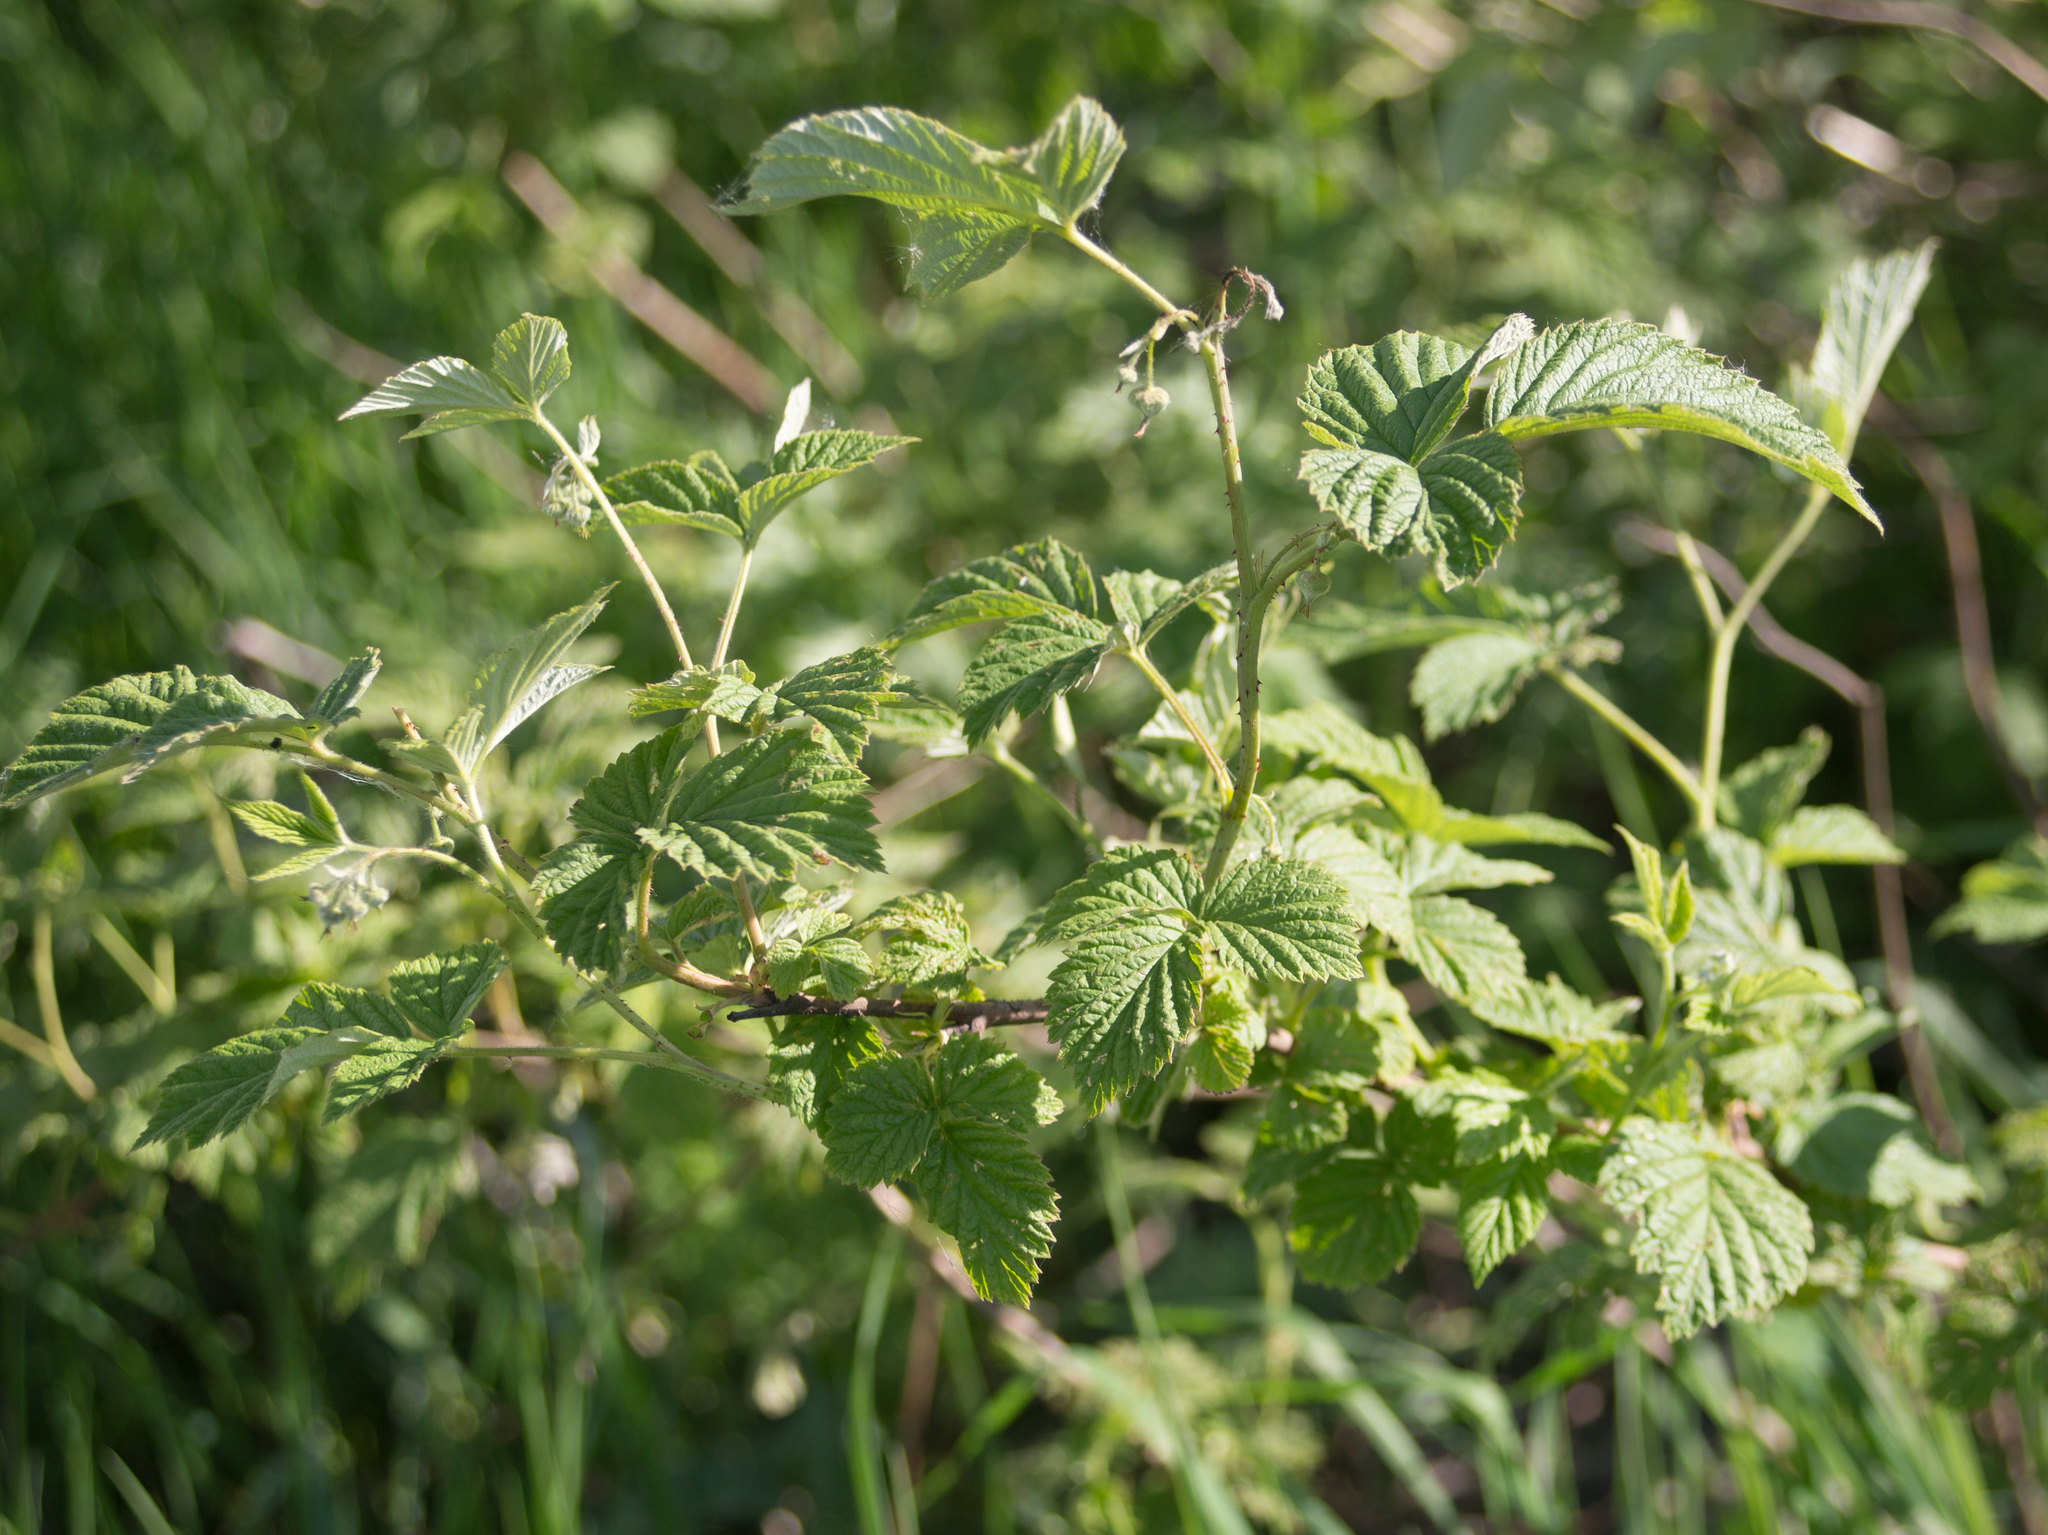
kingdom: Plantae
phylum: Tracheophyta
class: Magnoliopsida
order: Rosales
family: Rosaceae
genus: Rubus
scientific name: Rubus idaeus
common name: Raspberry
